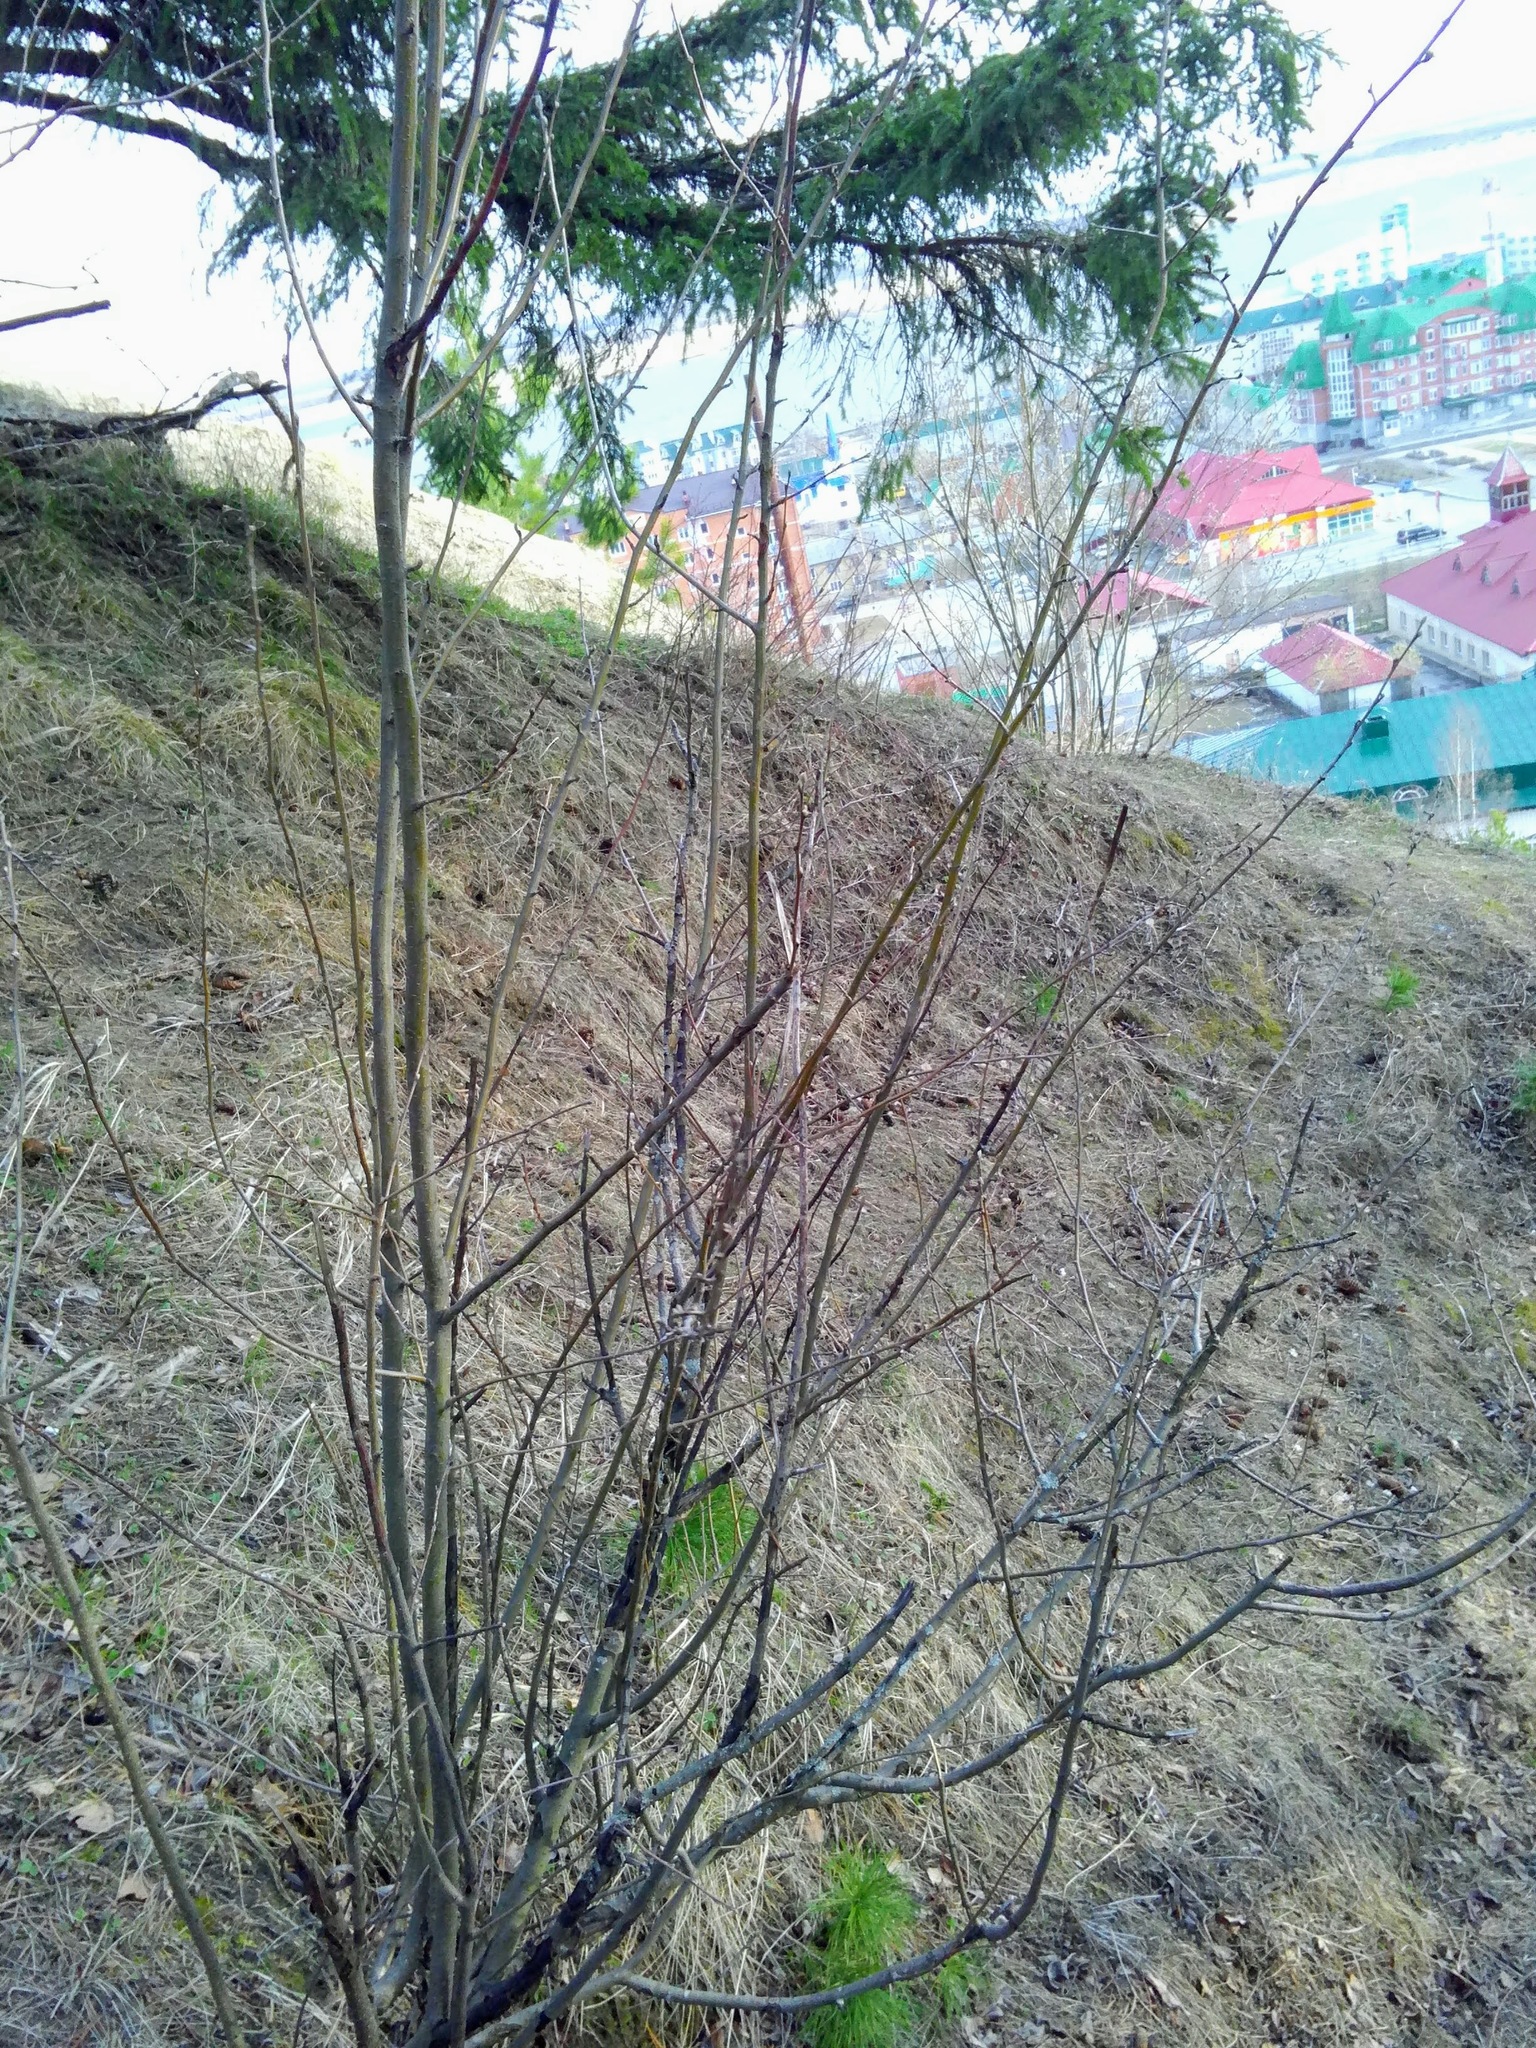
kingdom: Plantae
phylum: Tracheophyta
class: Magnoliopsida
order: Rosales
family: Rosaceae
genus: Cotoneaster
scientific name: Cotoneaster melanocarpus
